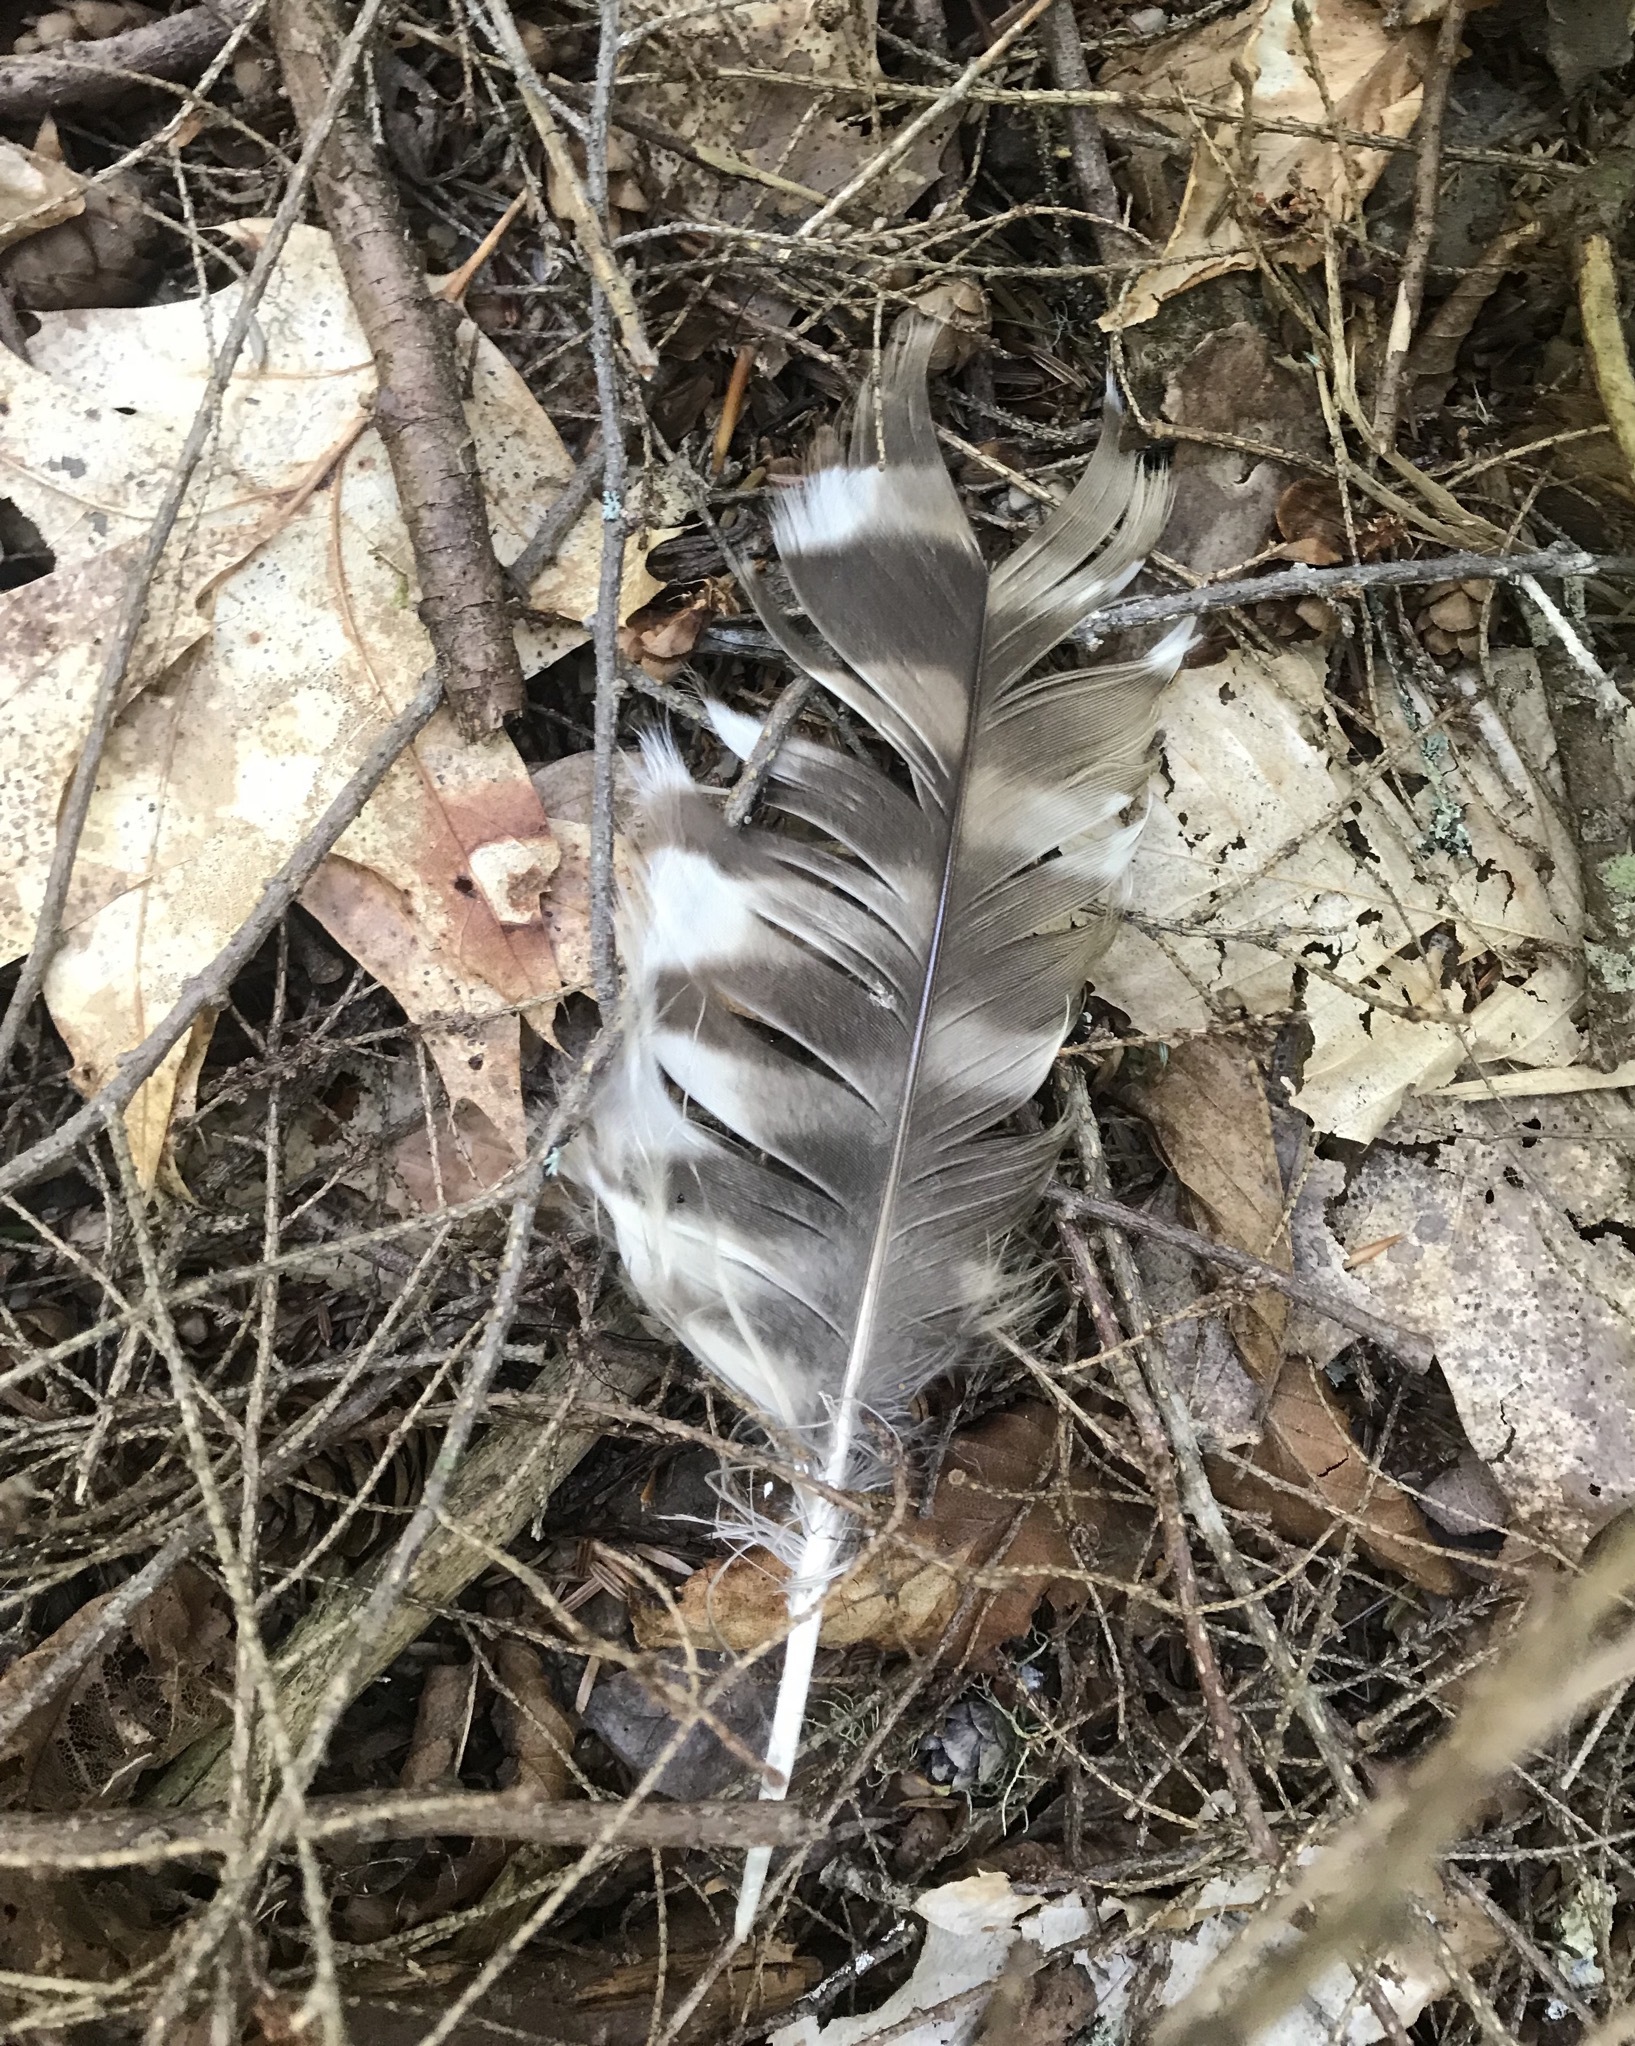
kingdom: Animalia
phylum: Chordata
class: Aves
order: Strigiformes
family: Strigidae
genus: Strix
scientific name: Strix varia
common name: Barred owl
